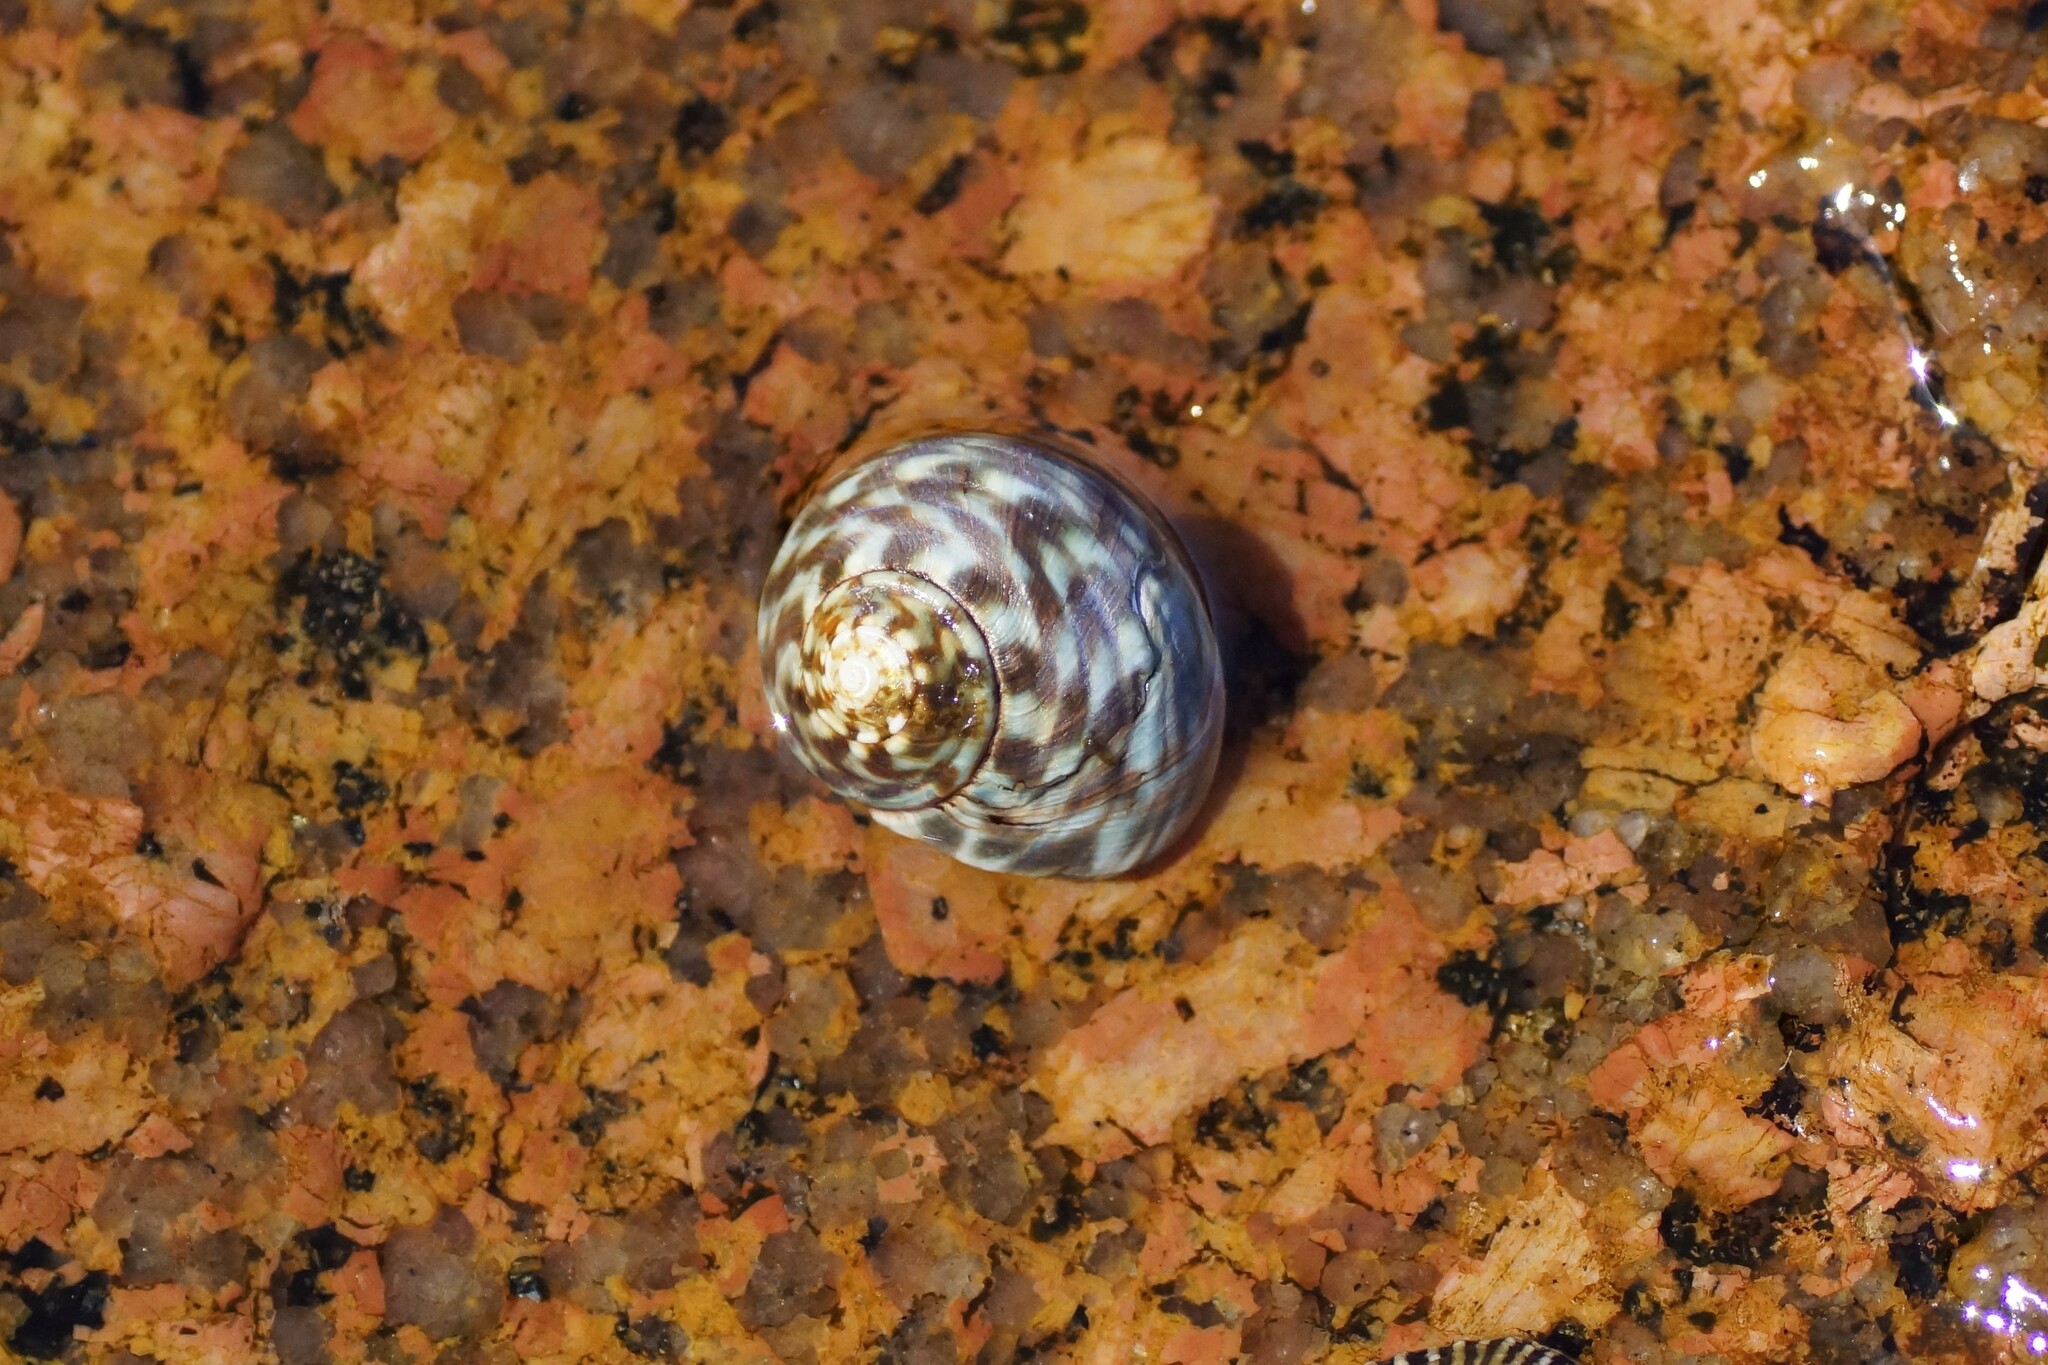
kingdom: Animalia
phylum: Mollusca
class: Gastropoda
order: Trochida
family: Turbinidae
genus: Lunella
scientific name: Lunella undulata
